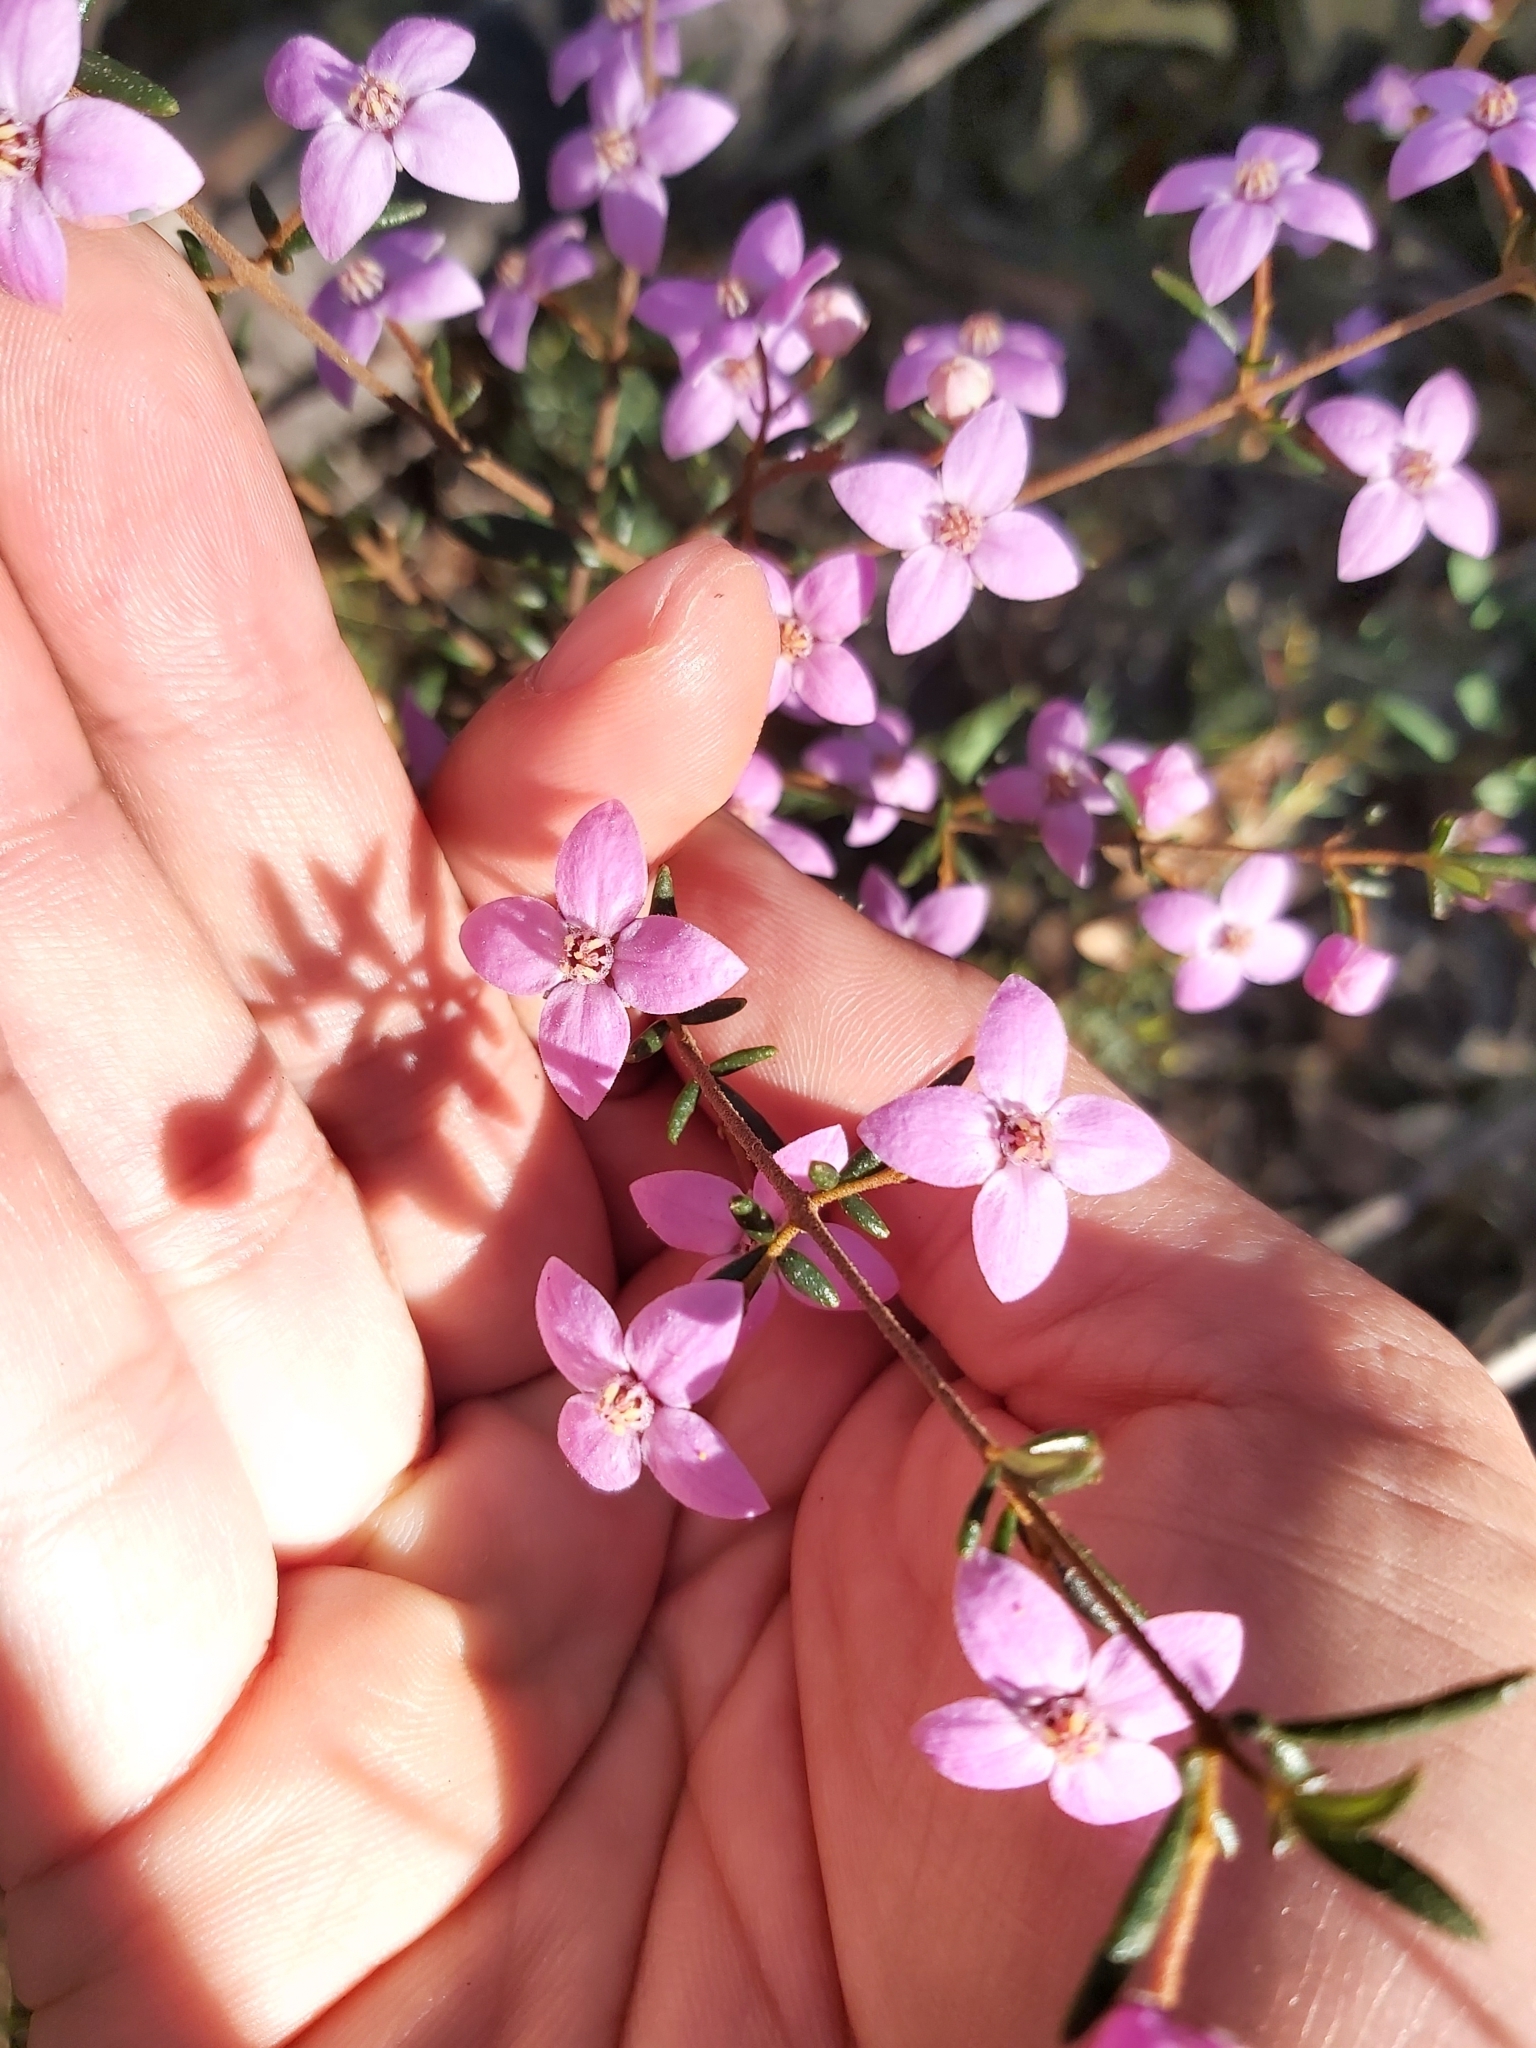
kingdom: Plantae
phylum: Tracheophyta
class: Magnoliopsida
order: Sapindales
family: Rutaceae
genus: Boronia
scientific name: Boronia ledifolia
